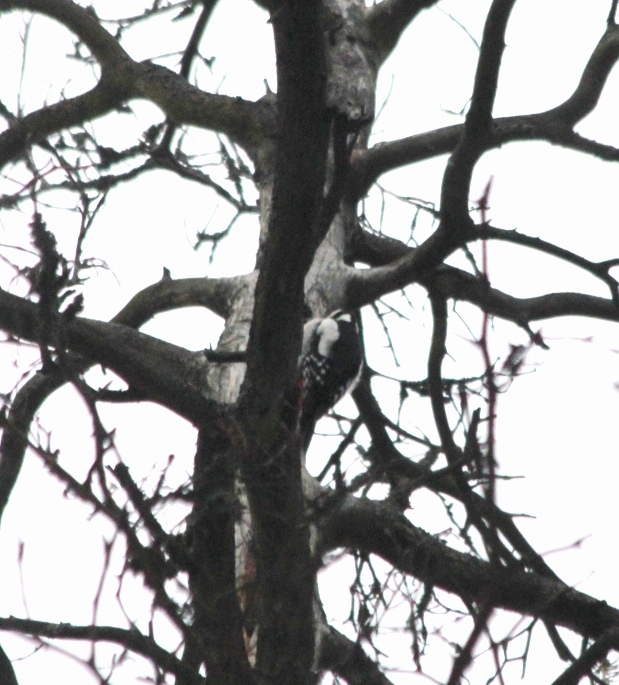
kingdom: Animalia
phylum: Chordata
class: Aves
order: Piciformes
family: Picidae
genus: Dendrocopos
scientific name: Dendrocopos major
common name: Great spotted woodpecker
